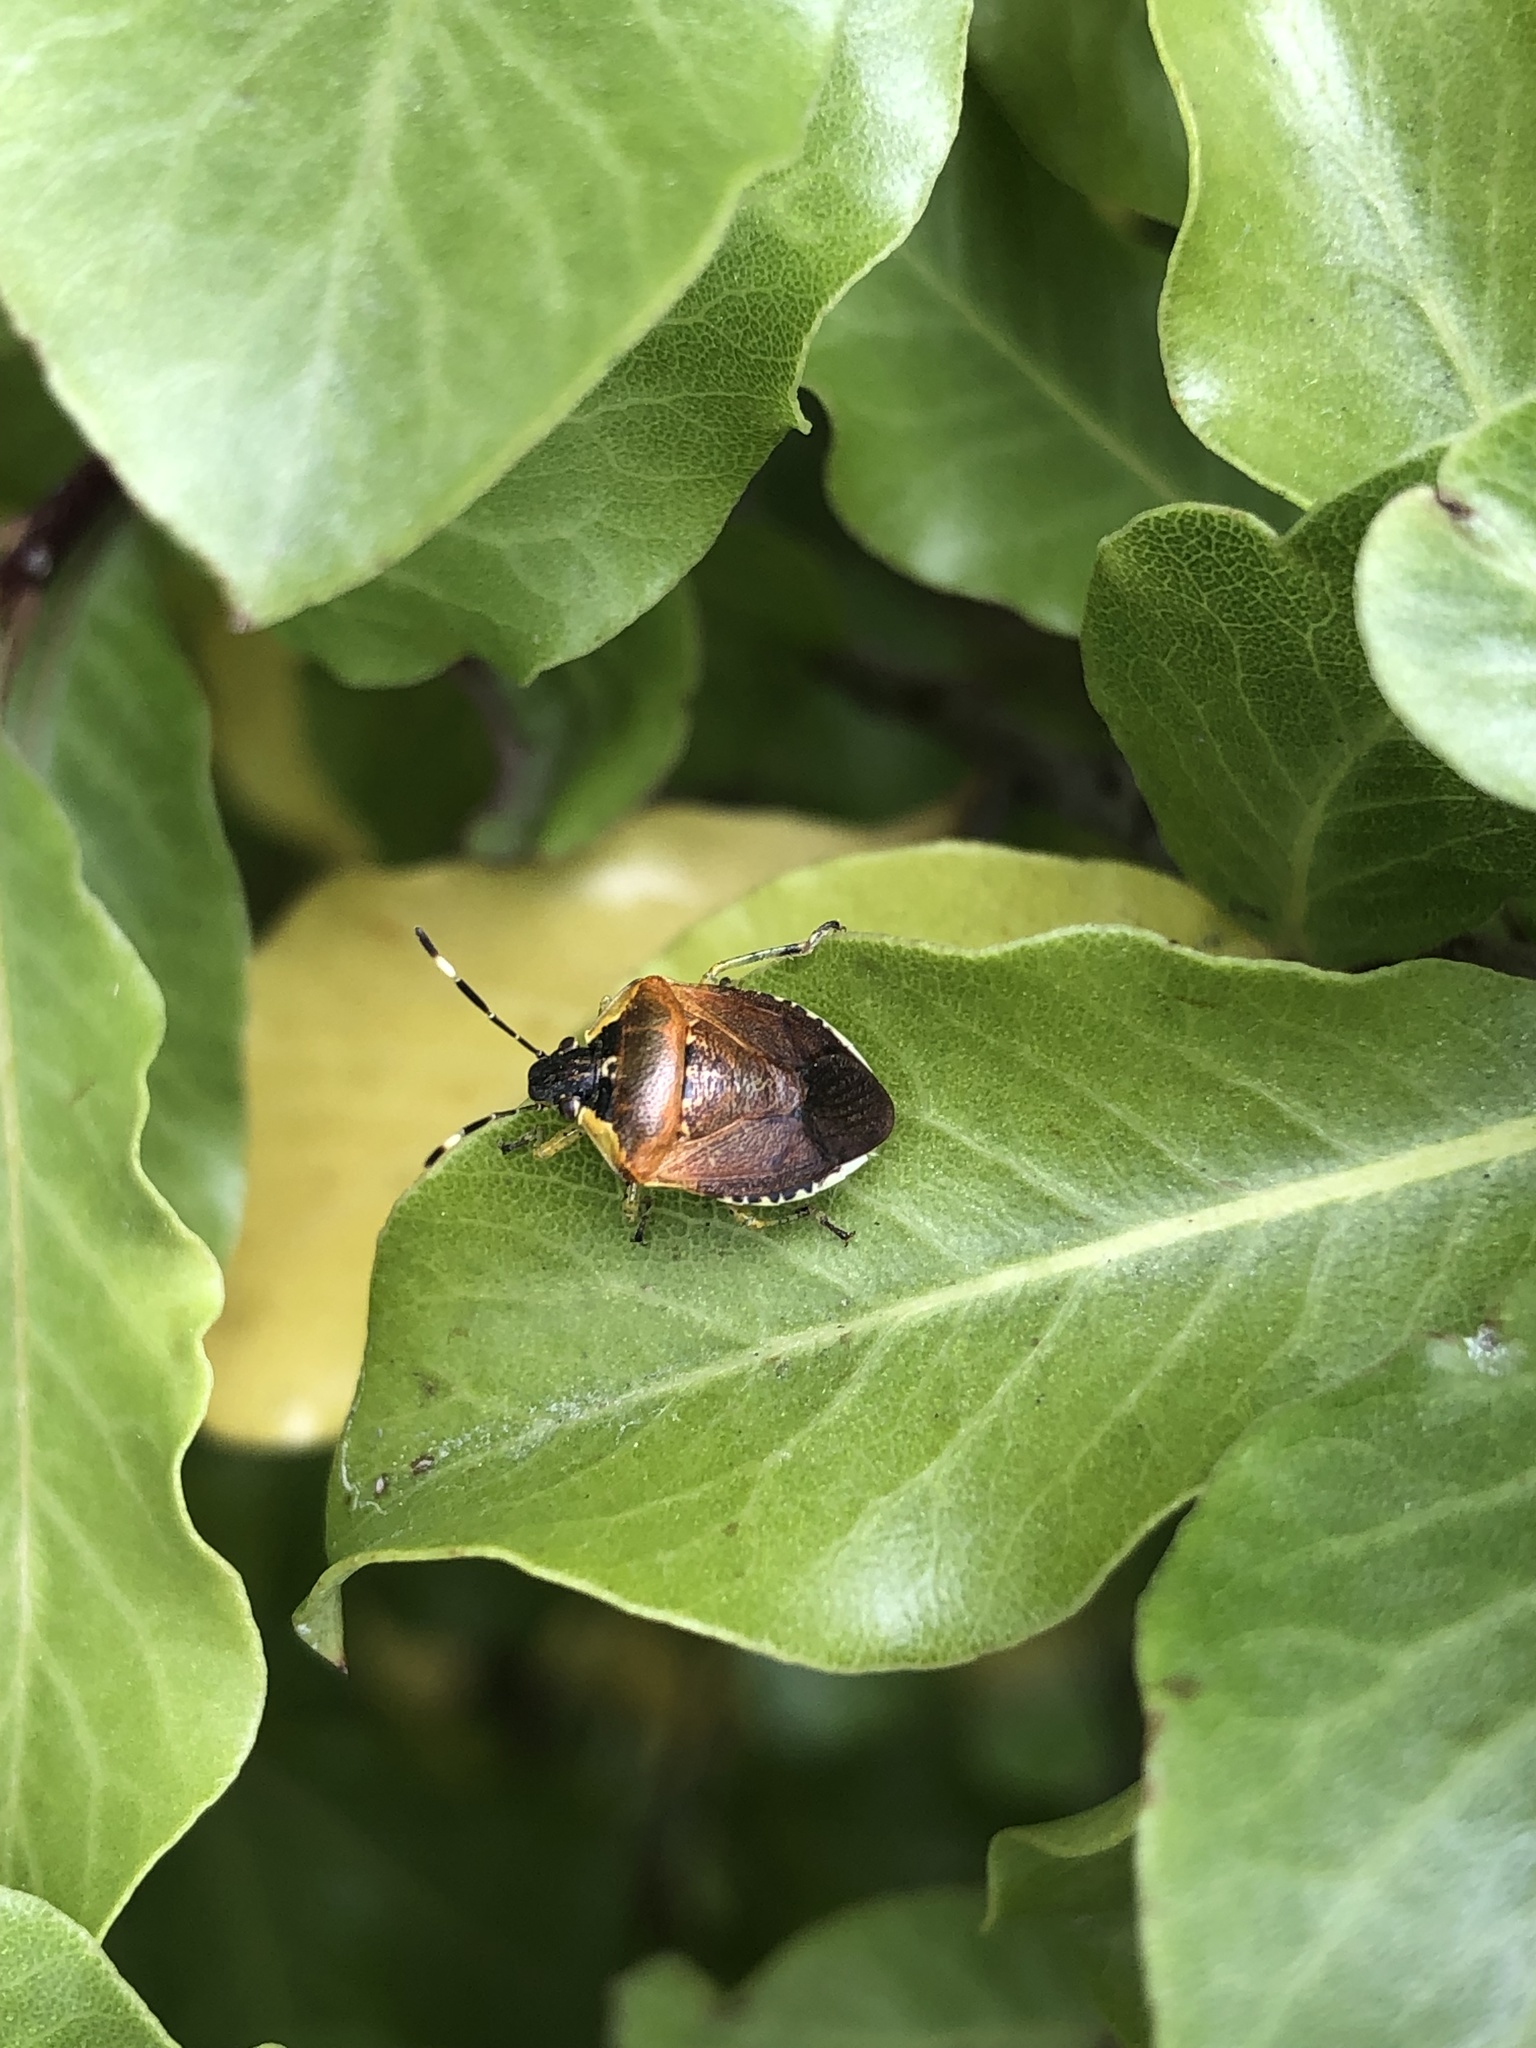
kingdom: Animalia
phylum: Arthropoda
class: Insecta
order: Hemiptera
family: Pentatomidae
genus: Monteithiella
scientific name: Monteithiella
